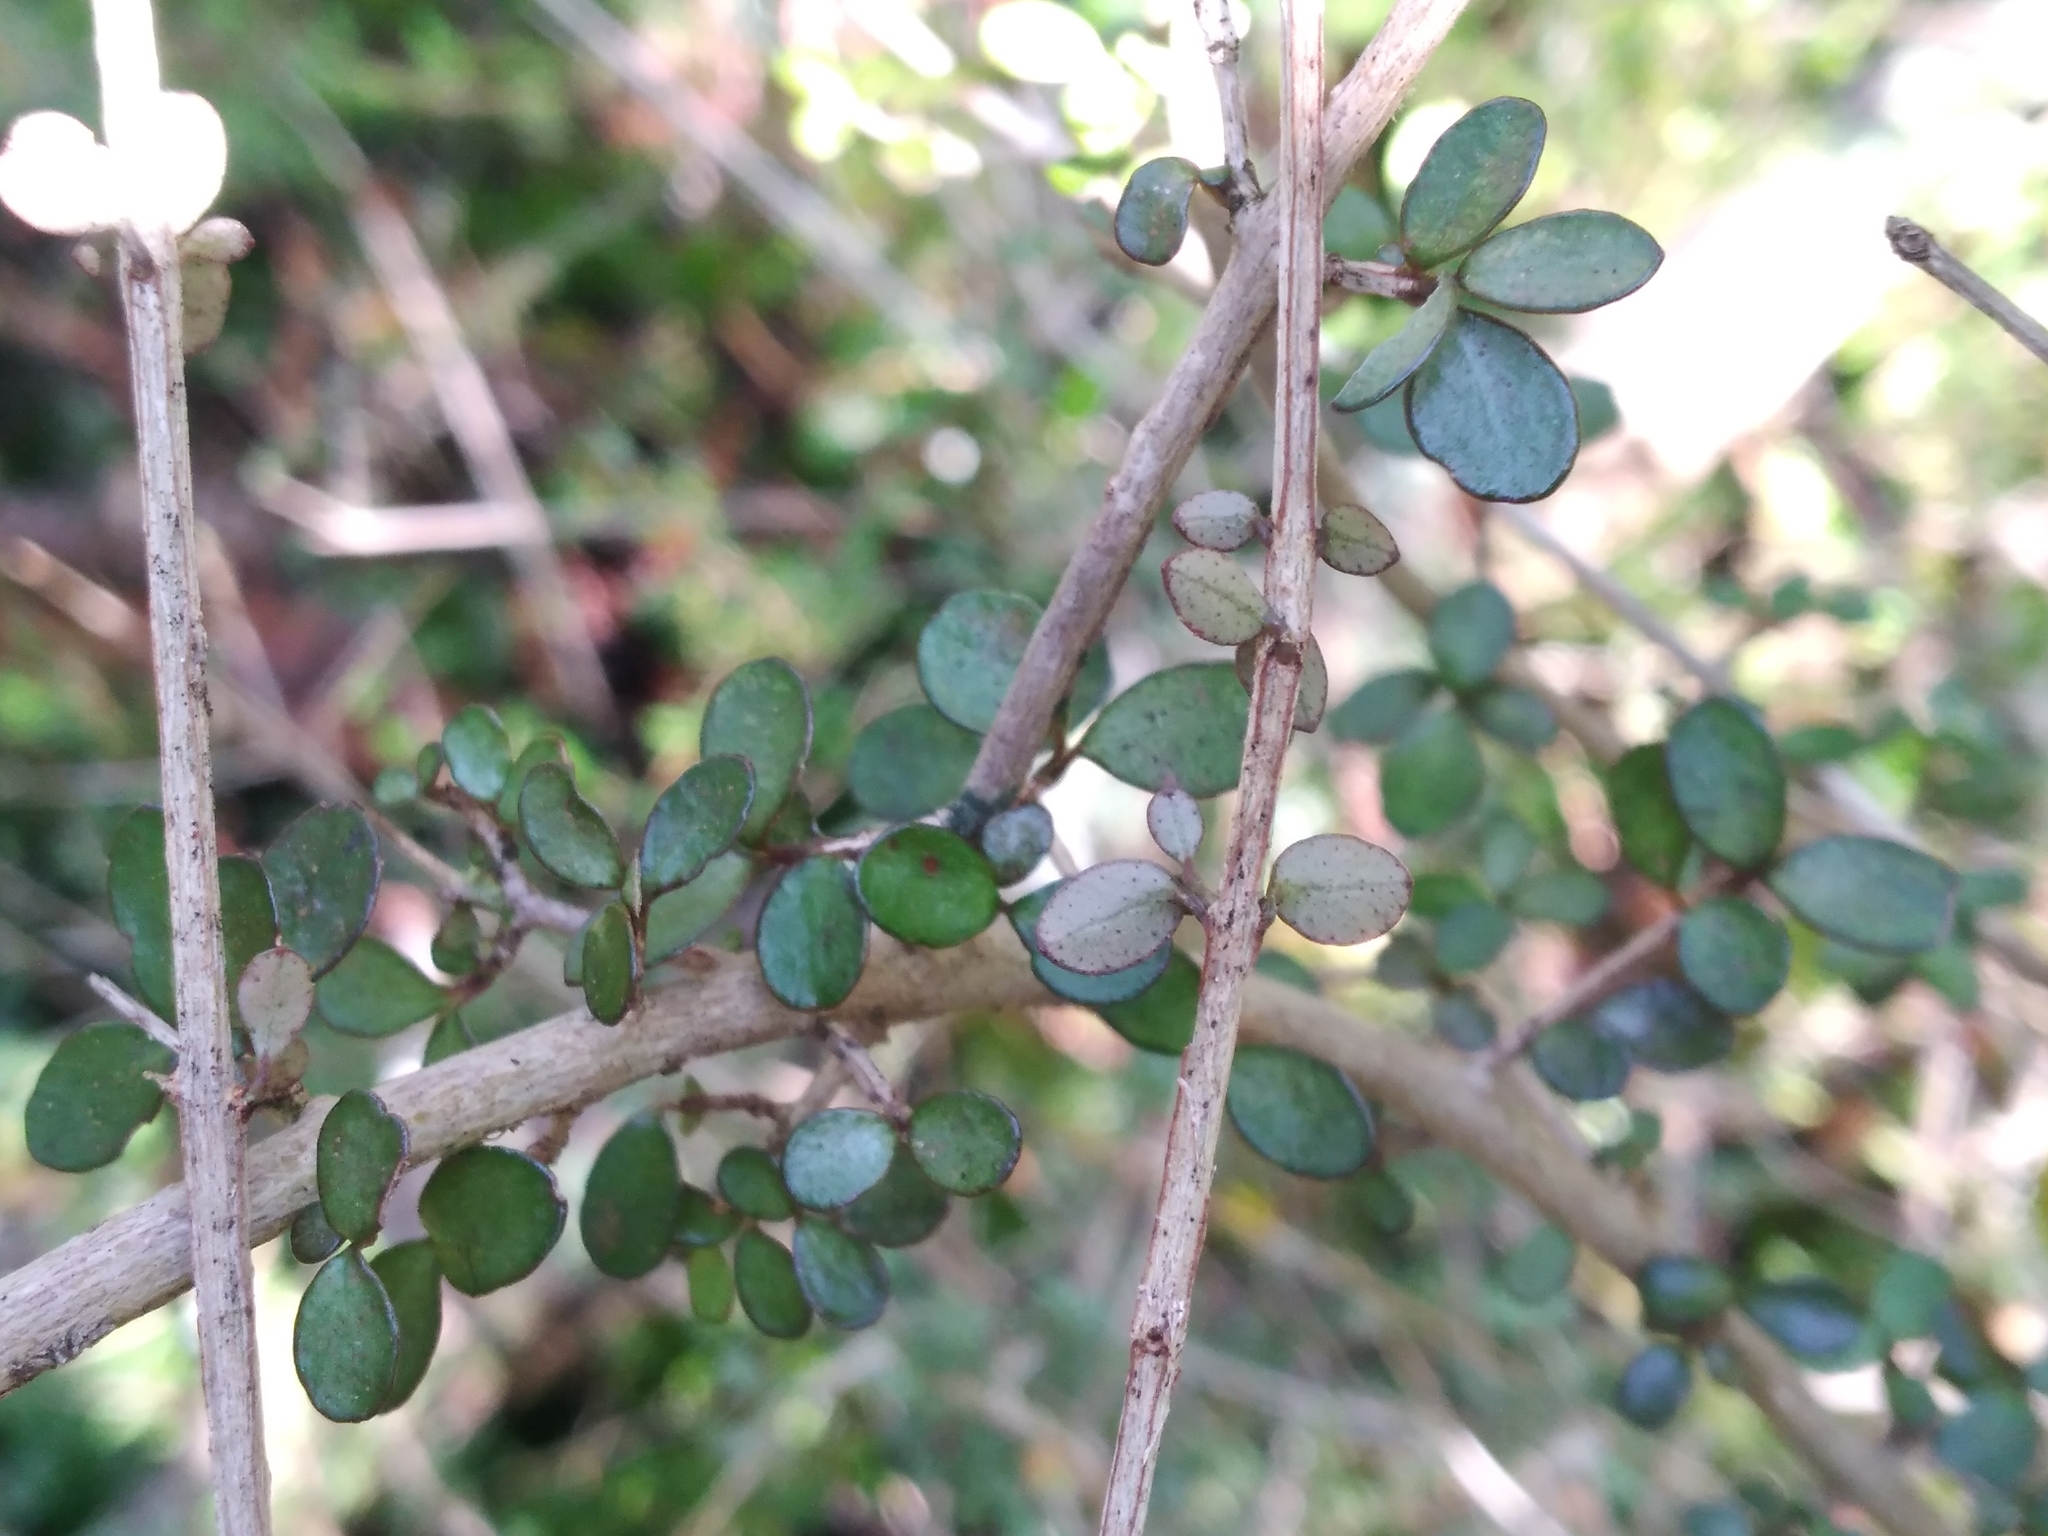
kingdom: Plantae
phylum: Tracheophyta
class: Magnoliopsida
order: Myrtales
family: Myrtaceae
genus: Neomyrtus
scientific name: Neomyrtus pedunculata
